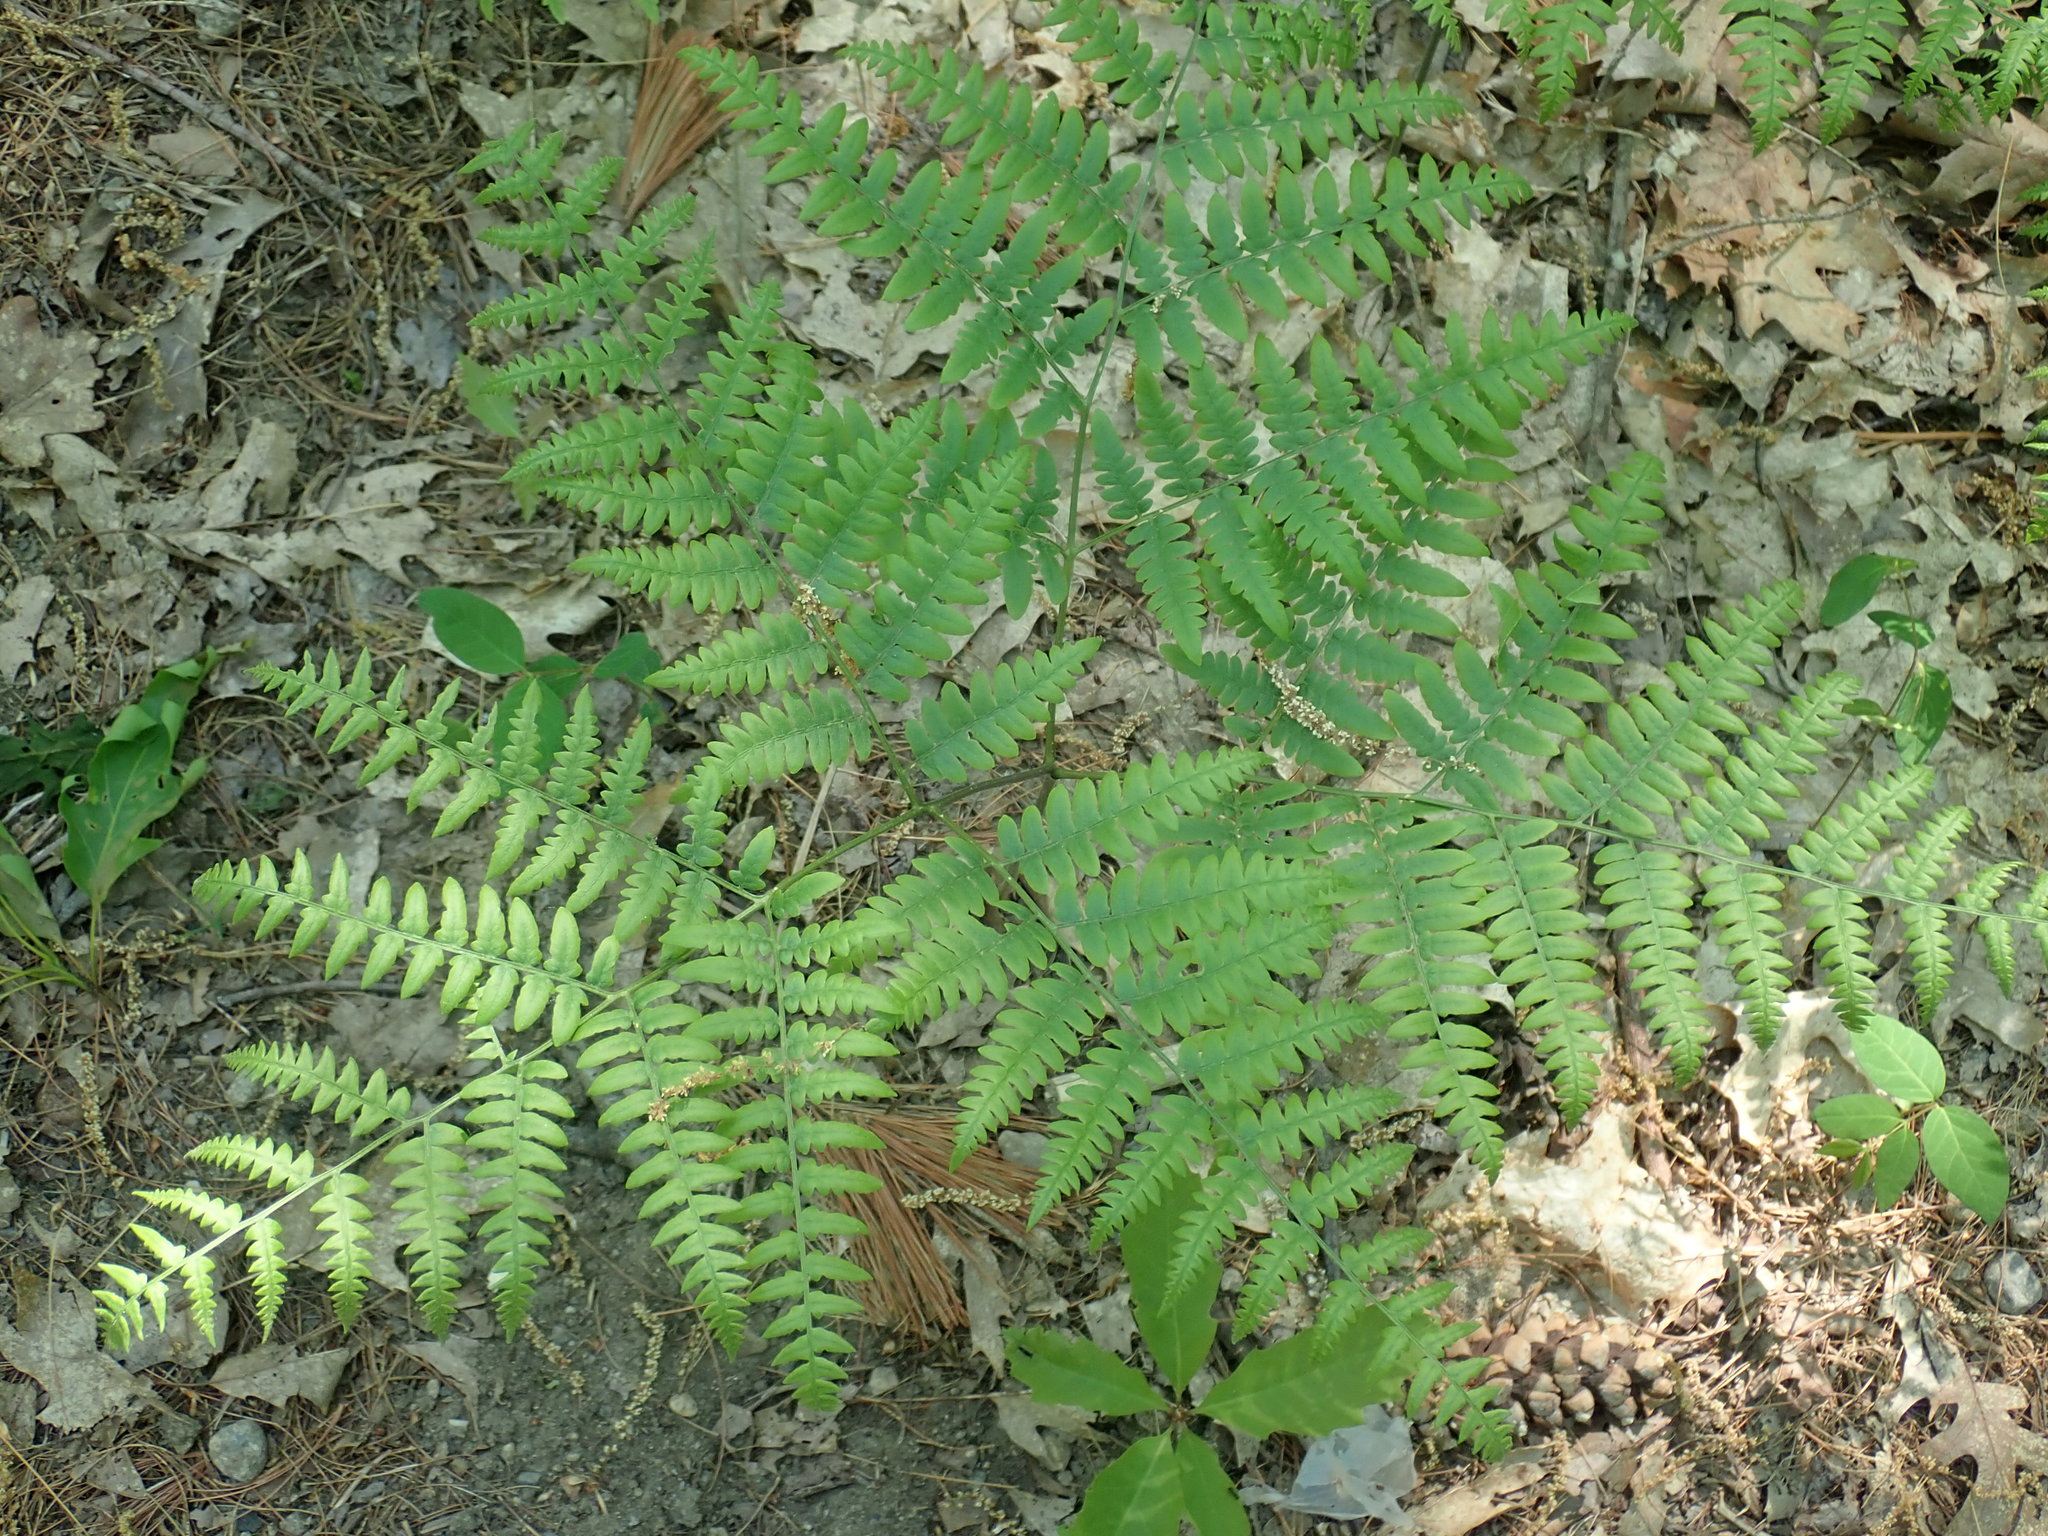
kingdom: Plantae
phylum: Tracheophyta
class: Polypodiopsida
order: Polypodiales
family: Dennstaedtiaceae
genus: Pteridium
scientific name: Pteridium aquilinum
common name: Bracken
